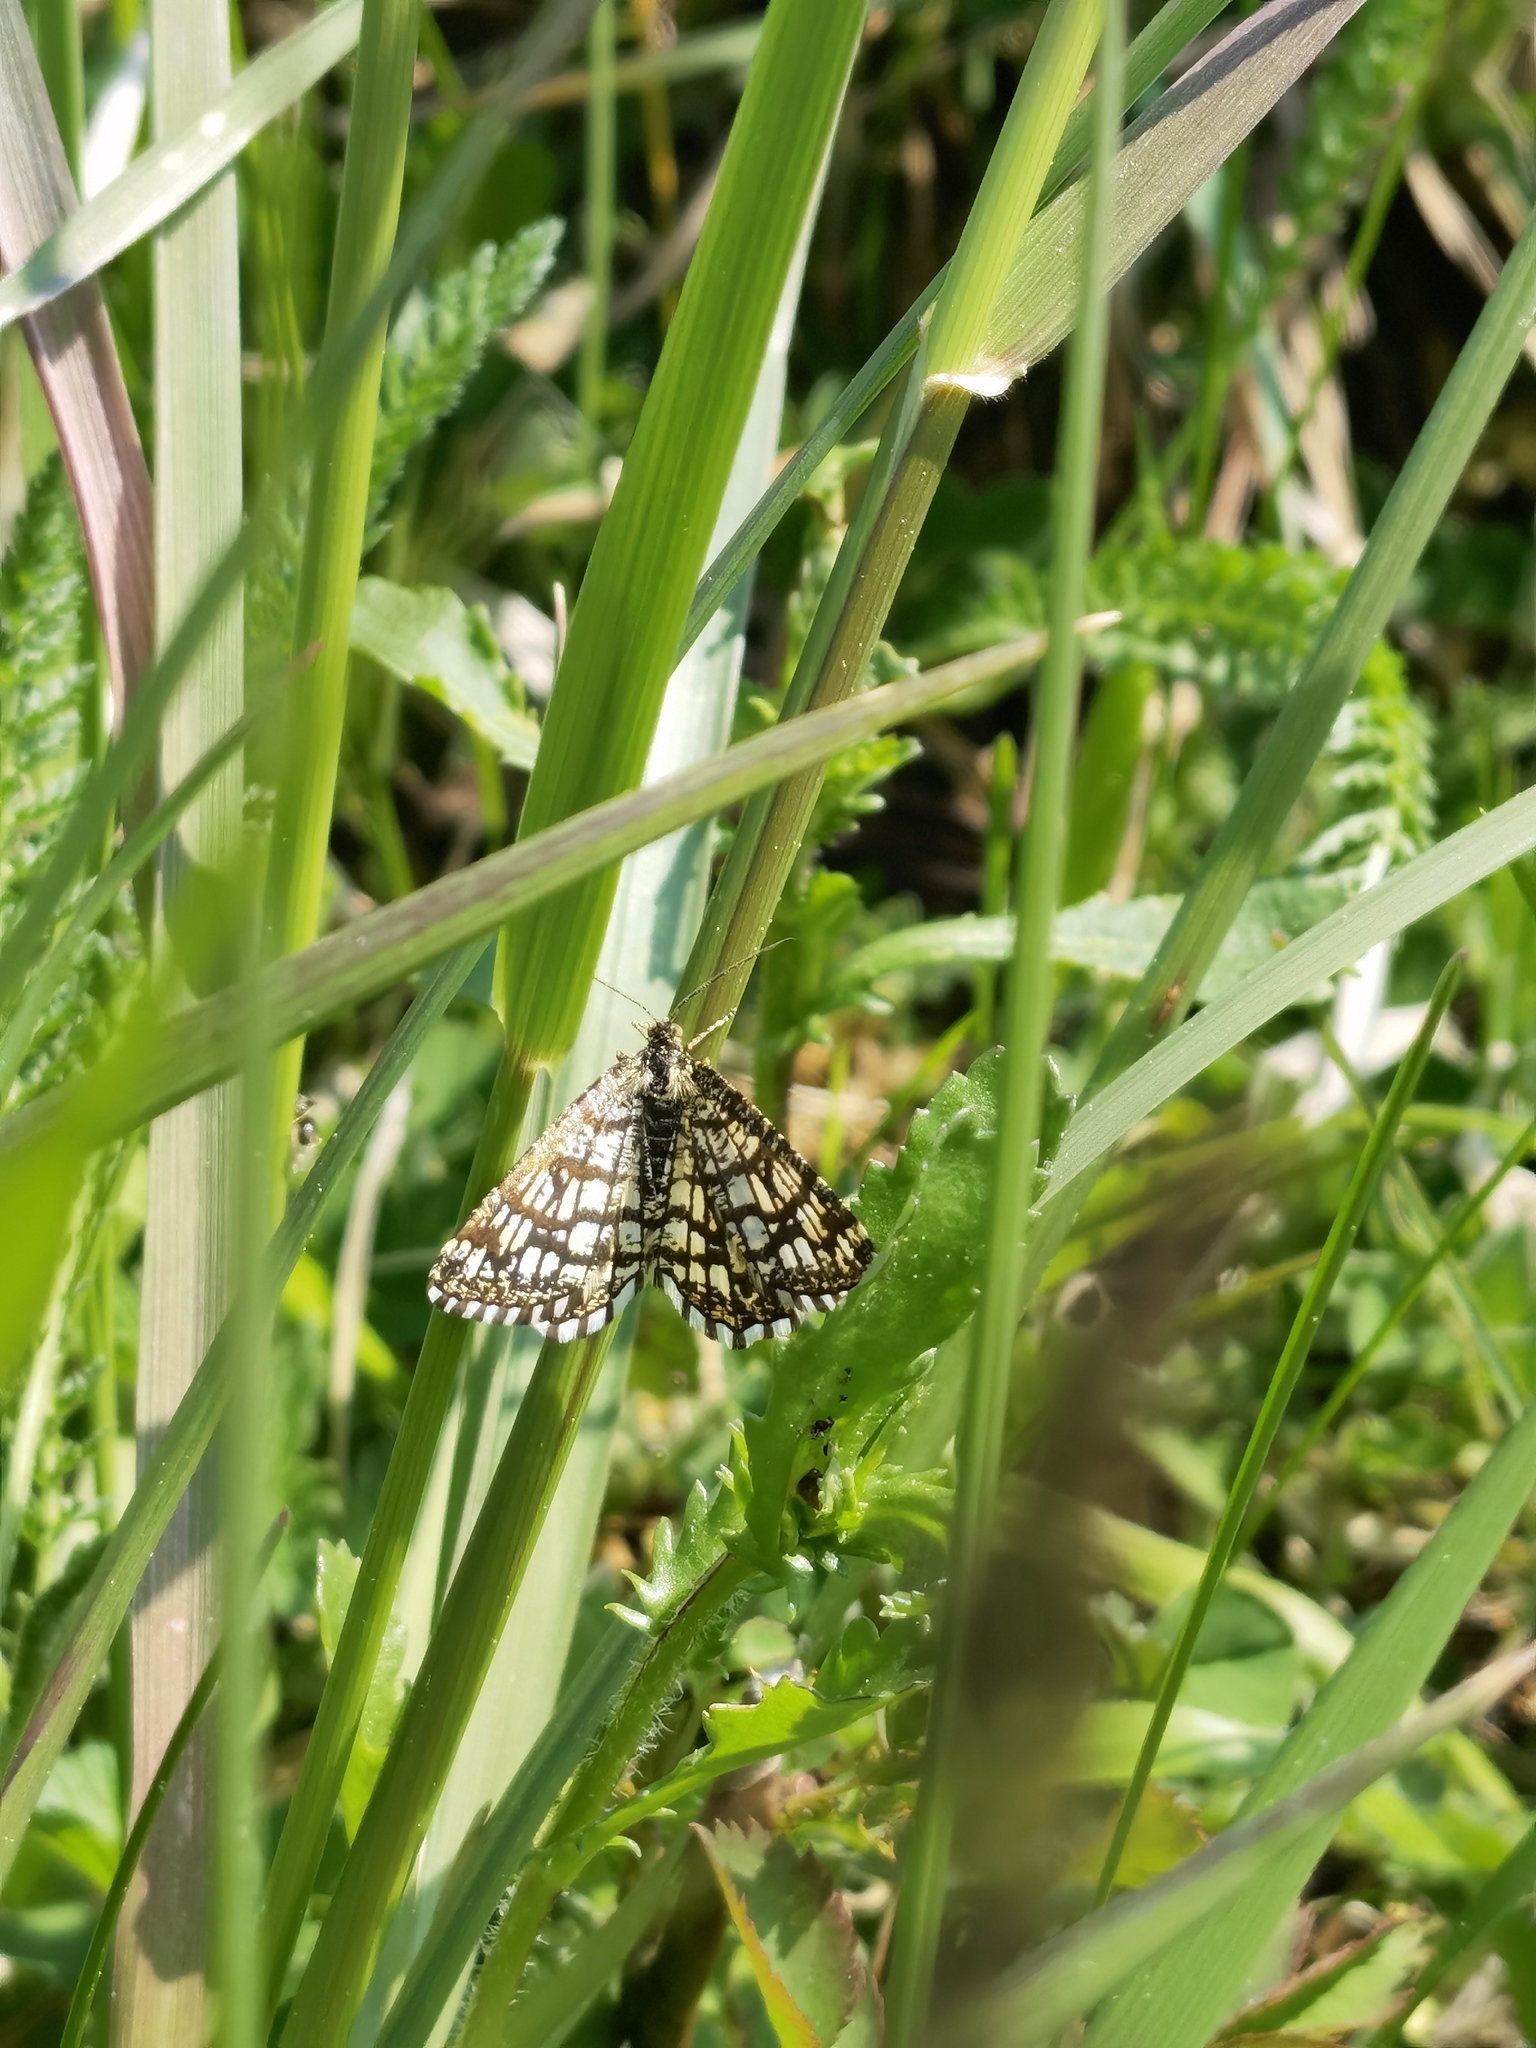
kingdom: Animalia
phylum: Arthropoda
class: Insecta
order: Lepidoptera
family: Geometridae
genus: Chiasmia
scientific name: Chiasmia clathrata
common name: Latticed heath
